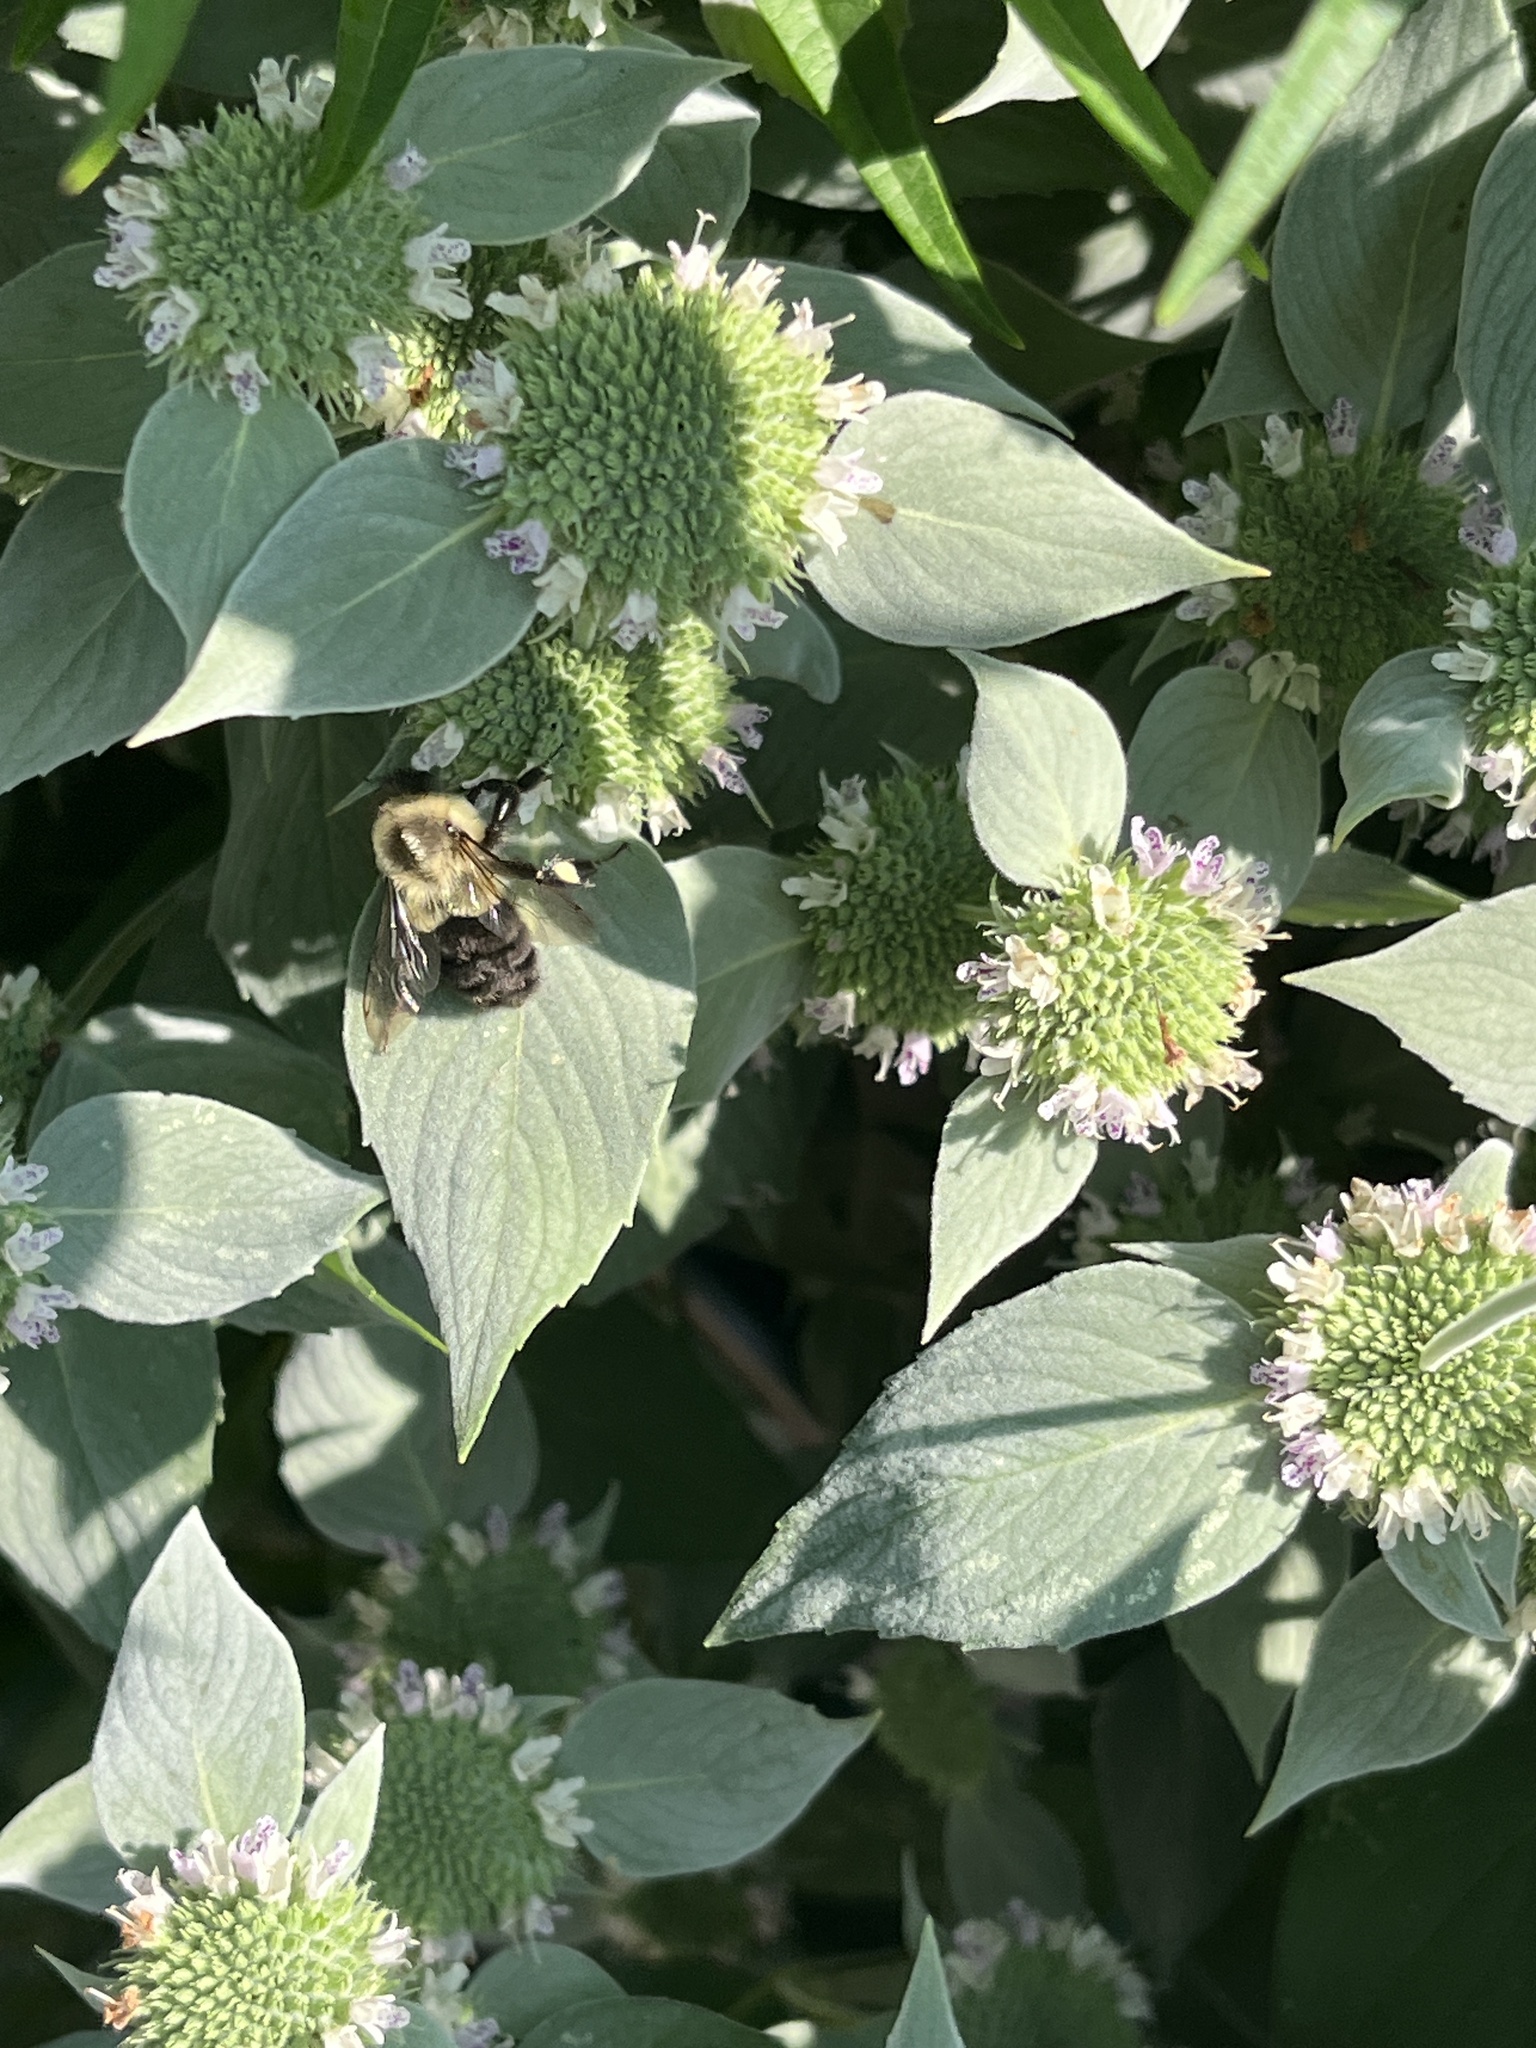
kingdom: Animalia
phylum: Arthropoda
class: Insecta
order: Hymenoptera
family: Apidae
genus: Bombus
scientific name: Bombus impatiens
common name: Common eastern bumble bee
